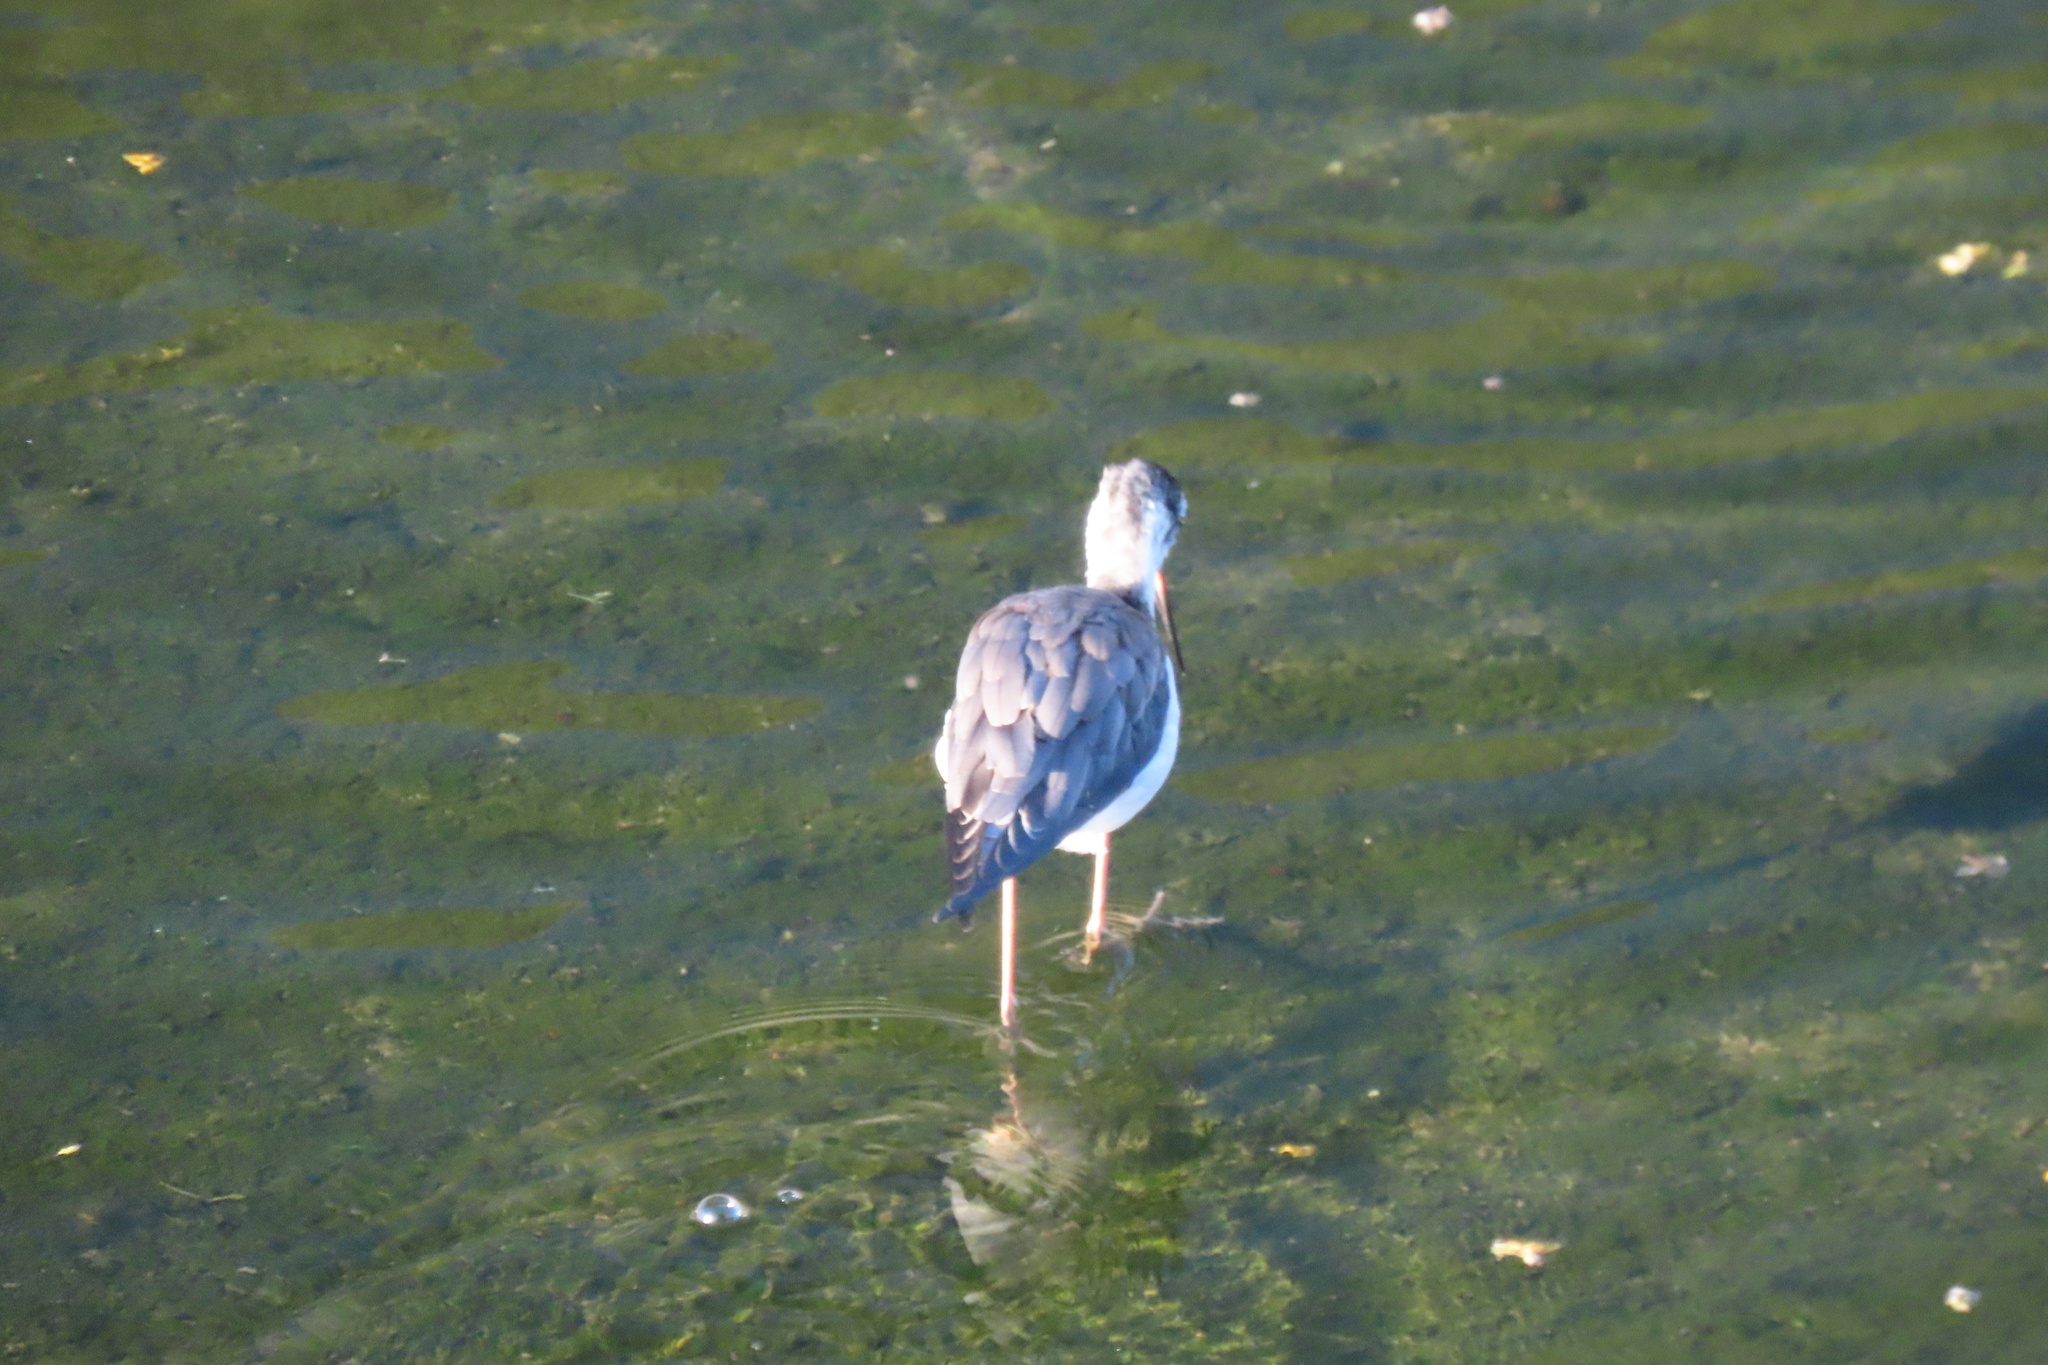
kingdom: Animalia
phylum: Chordata
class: Aves
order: Charadriiformes
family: Recurvirostridae
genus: Himantopus
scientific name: Himantopus mexicanus
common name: Black-necked stilt
